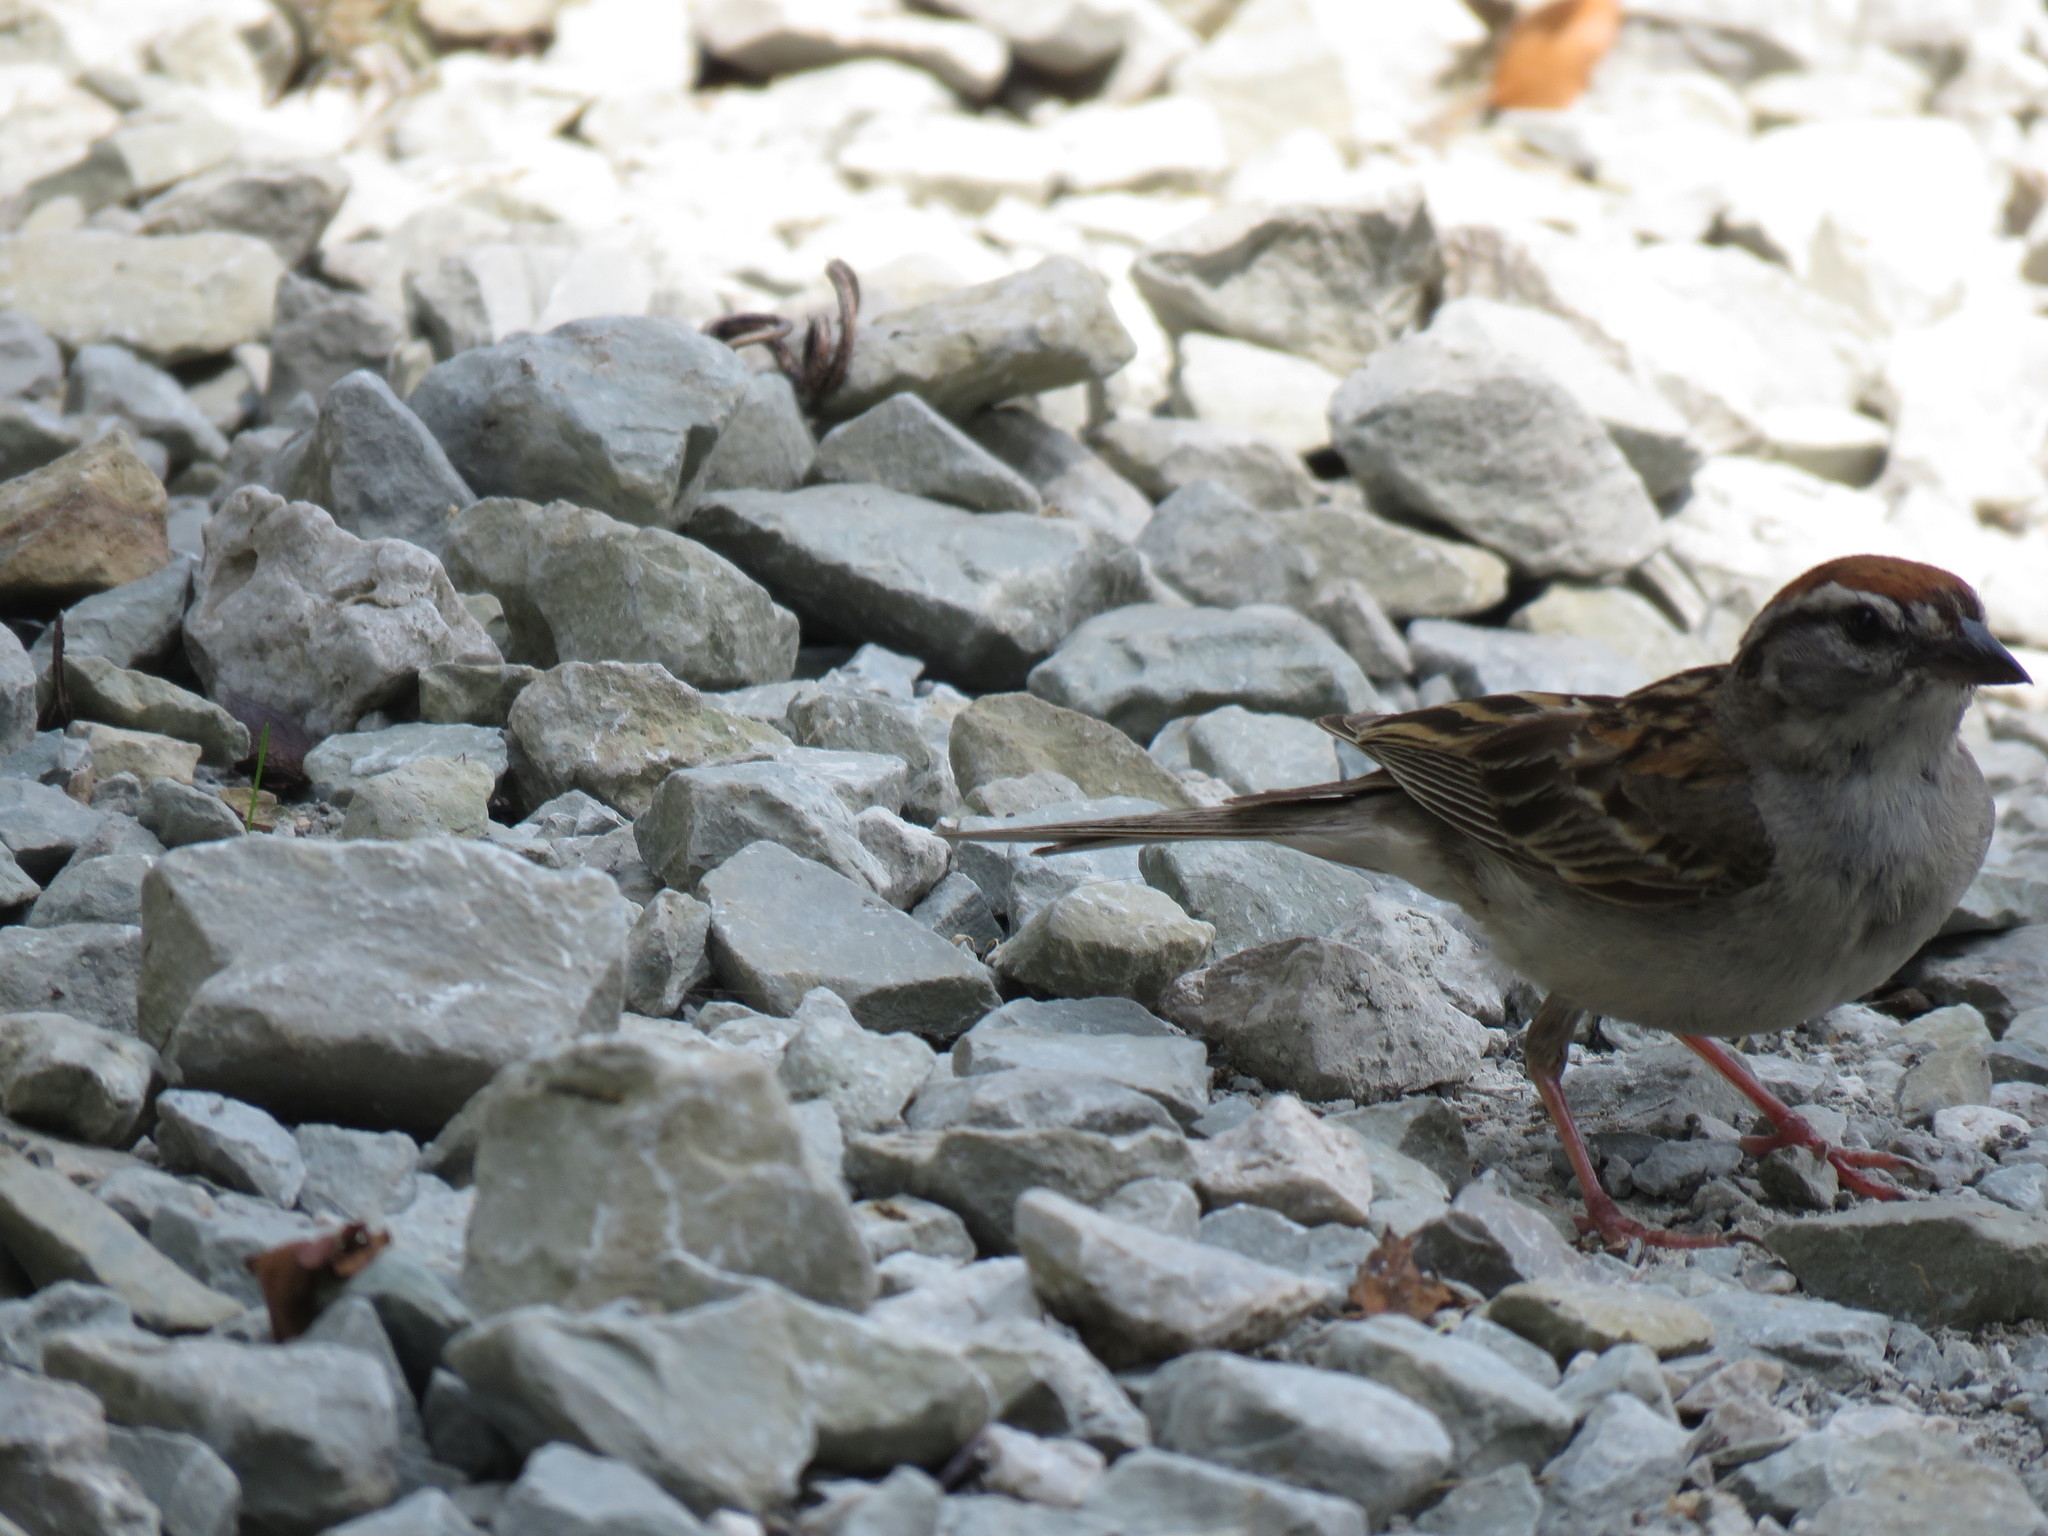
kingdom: Animalia
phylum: Chordata
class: Aves
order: Passeriformes
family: Passerellidae
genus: Spizella
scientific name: Spizella passerina
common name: Chipping sparrow
